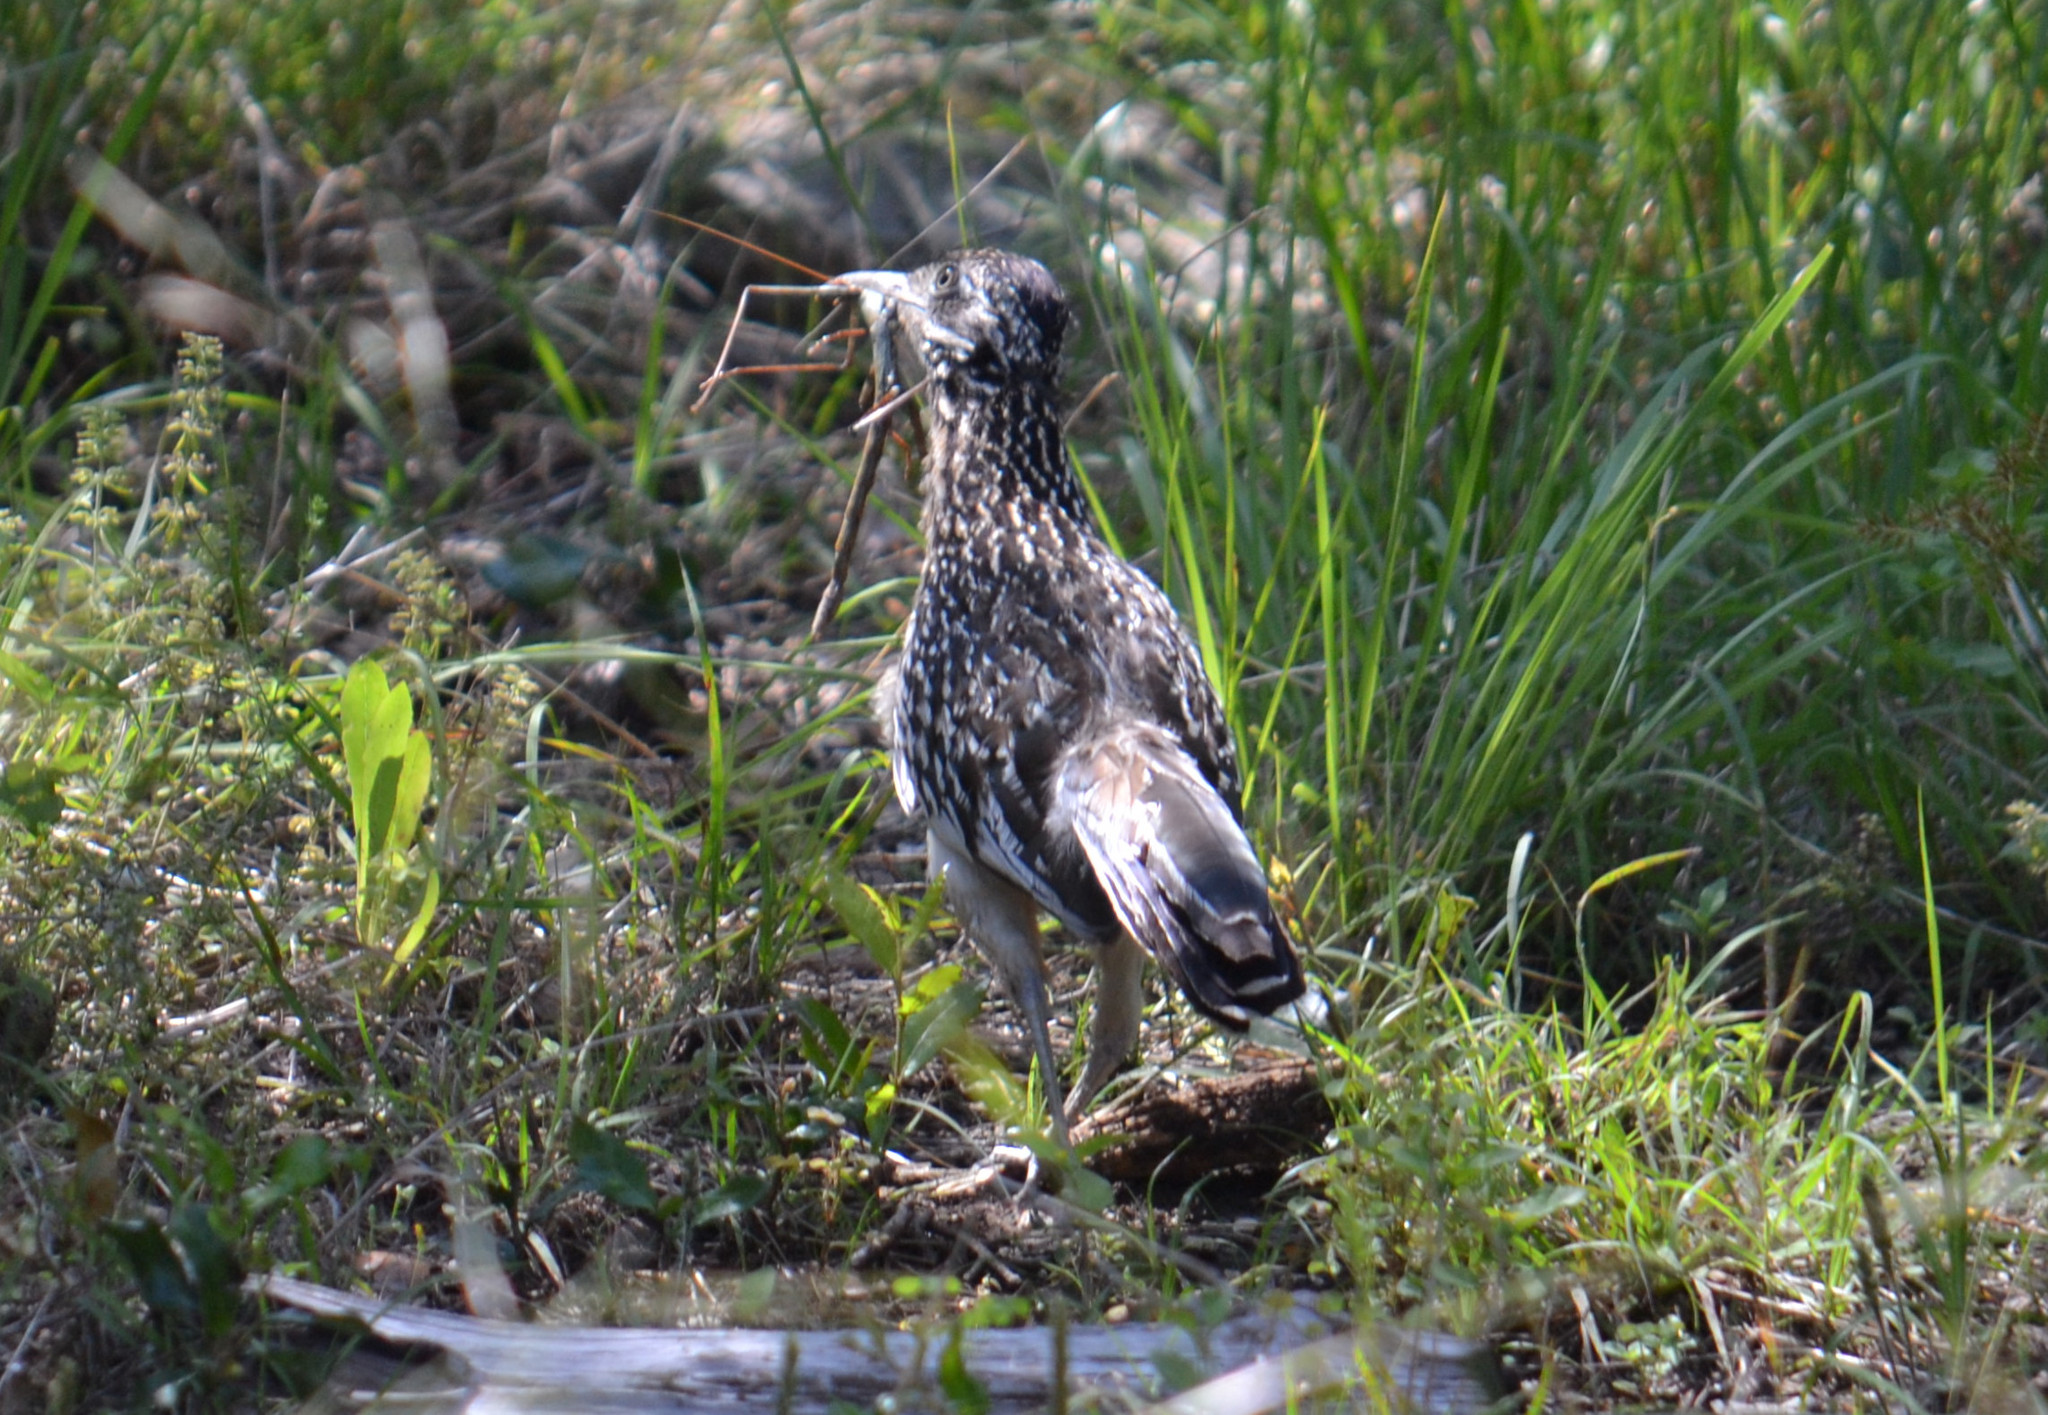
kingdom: Animalia
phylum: Chordata
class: Aves
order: Cuculiformes
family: Cuculidae
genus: Geococcyx
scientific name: Geococcyx californianus
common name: Greater roadrunner
